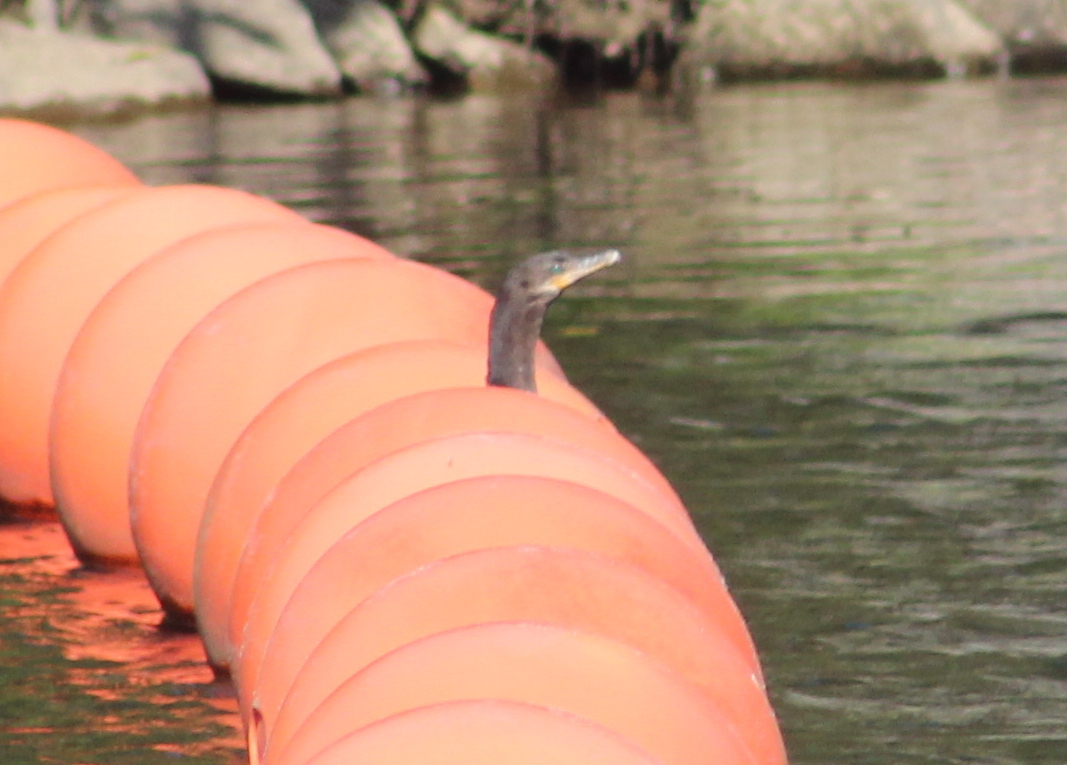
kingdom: Animalia
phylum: Chordata
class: Aves
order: Suliformes
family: Phalacrocoracidae
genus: Phalacrocorax
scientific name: Phalacrocorax brasilianus
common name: Neotropic cormorant
